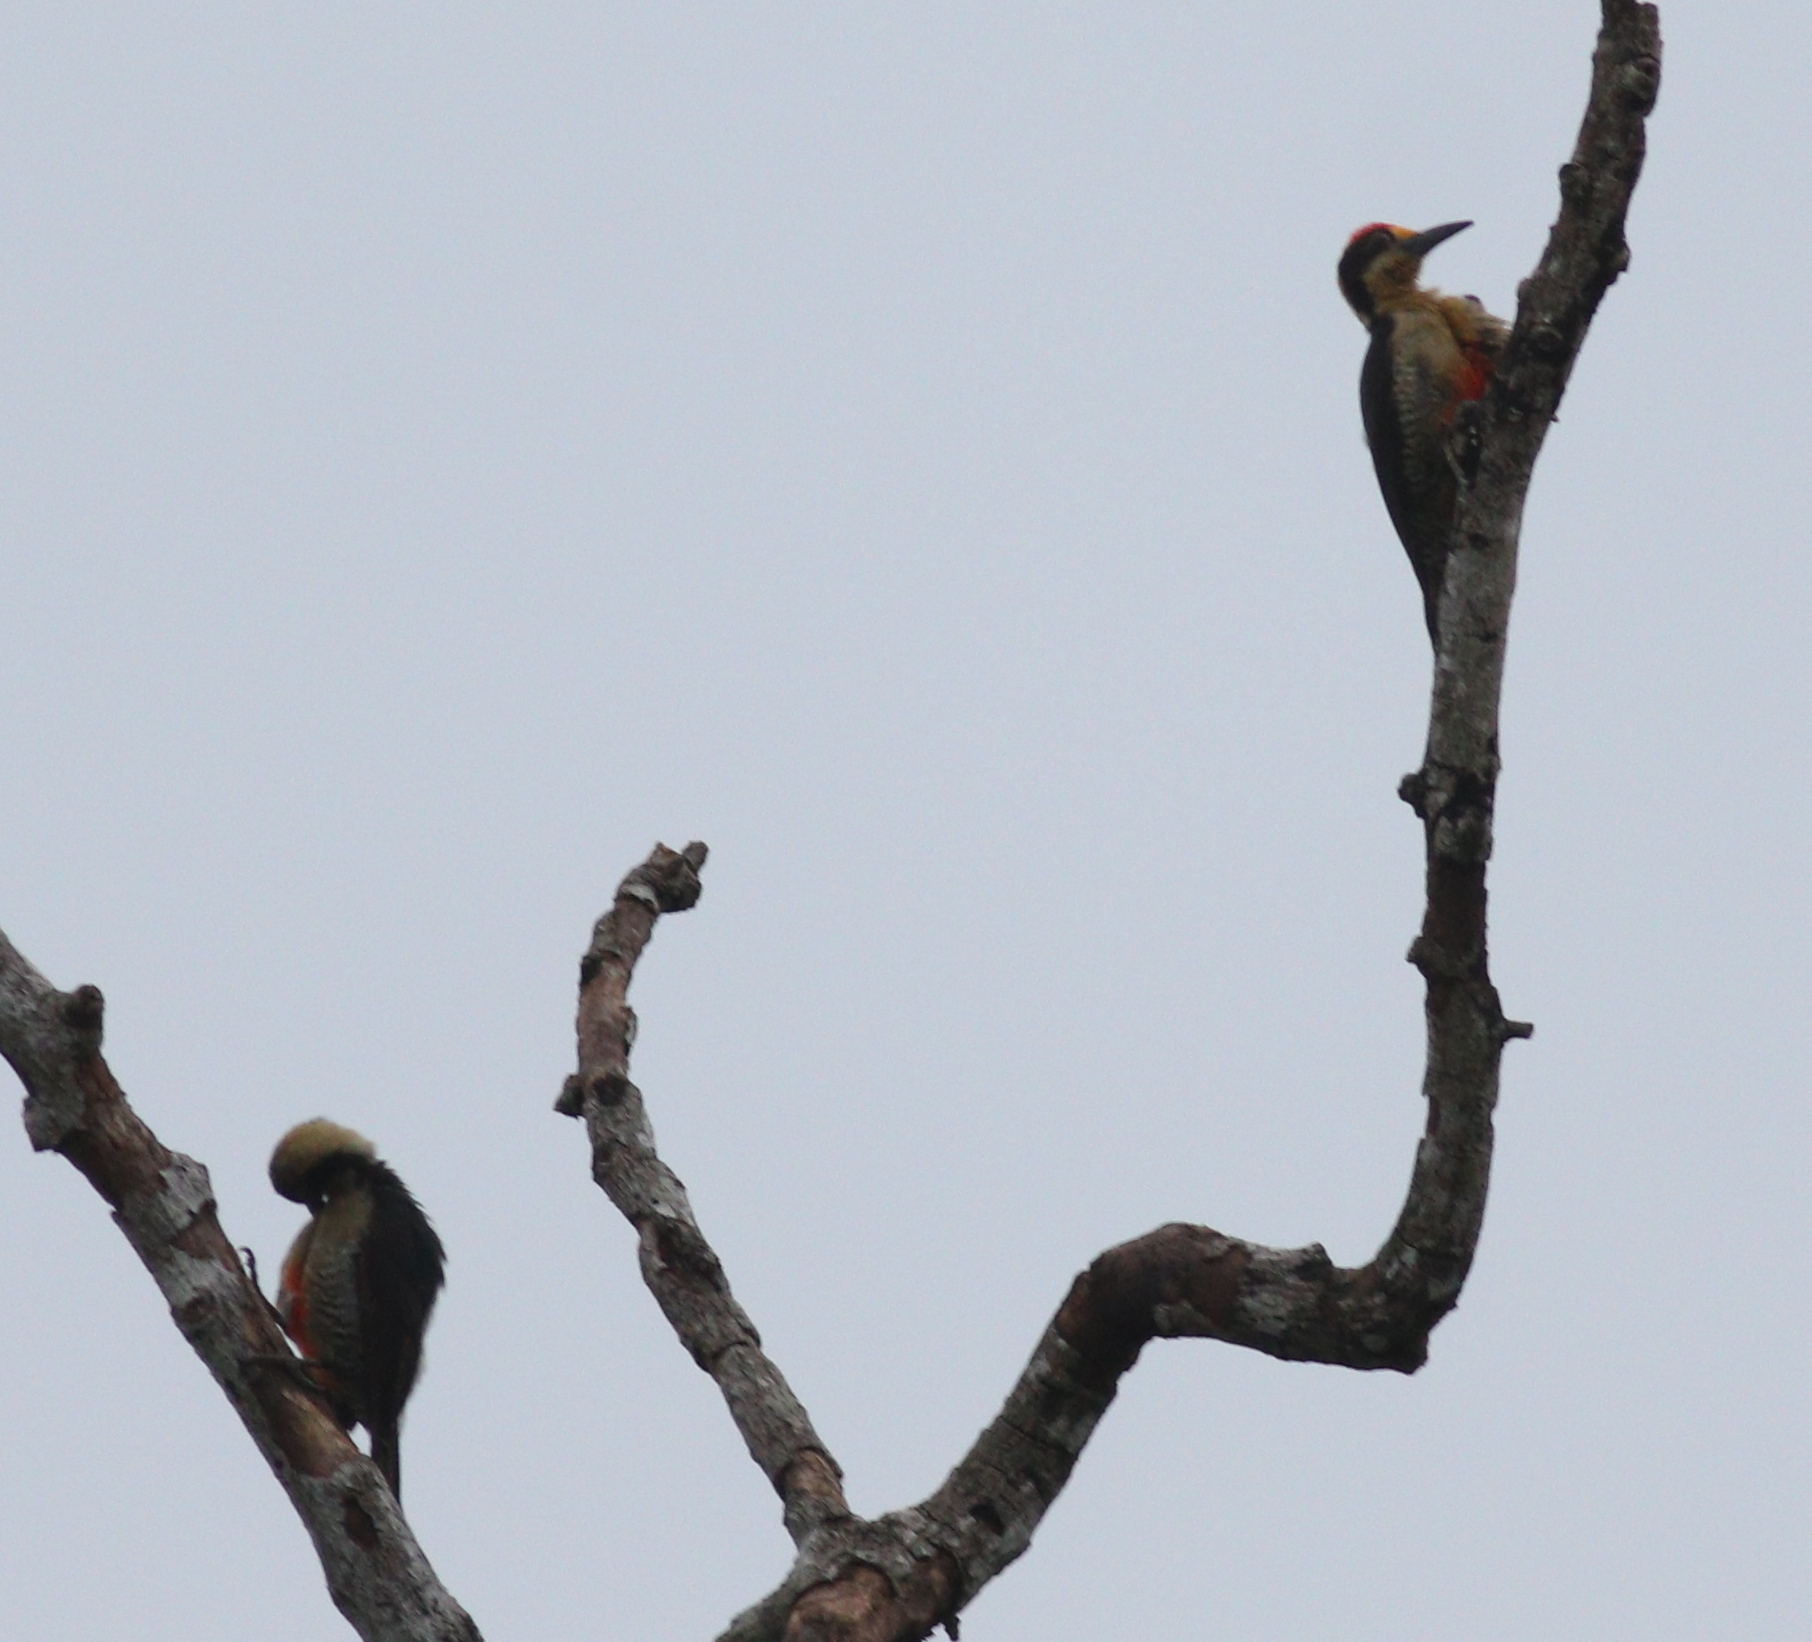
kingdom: Animalia
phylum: Chordata
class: Aves
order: Piciformes
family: Picidae
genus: Melanerpes
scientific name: Melanerpes chrysauchen
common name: Golden-naped woodpecker
